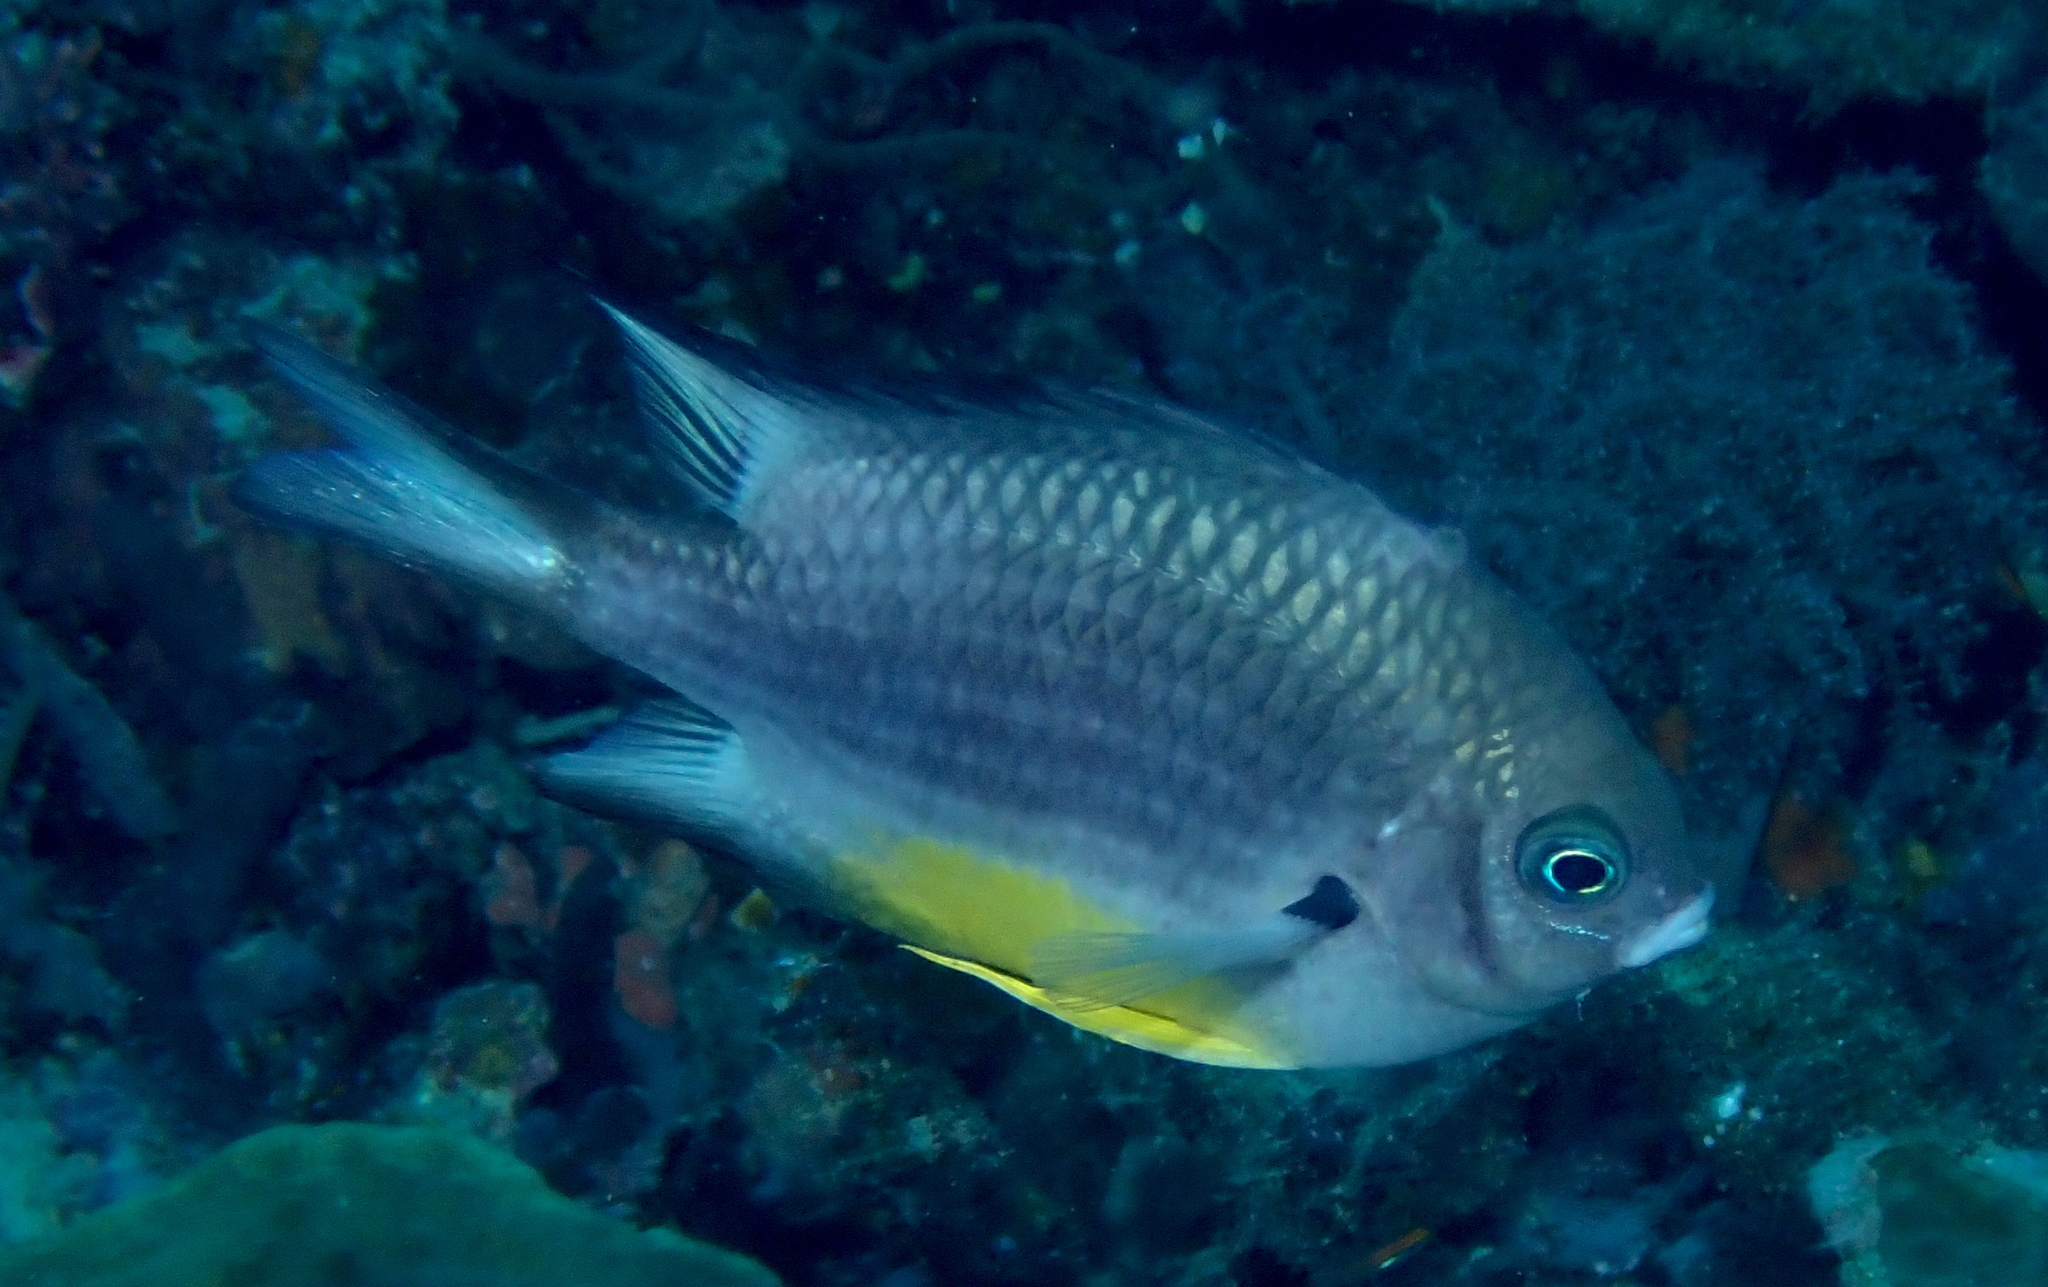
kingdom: Animalia
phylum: Chordata
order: Perciformes
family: Pomacentridae
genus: Amblyglyphidodon
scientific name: Amblyglyphidodon leucogaster
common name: White-belly damsel
